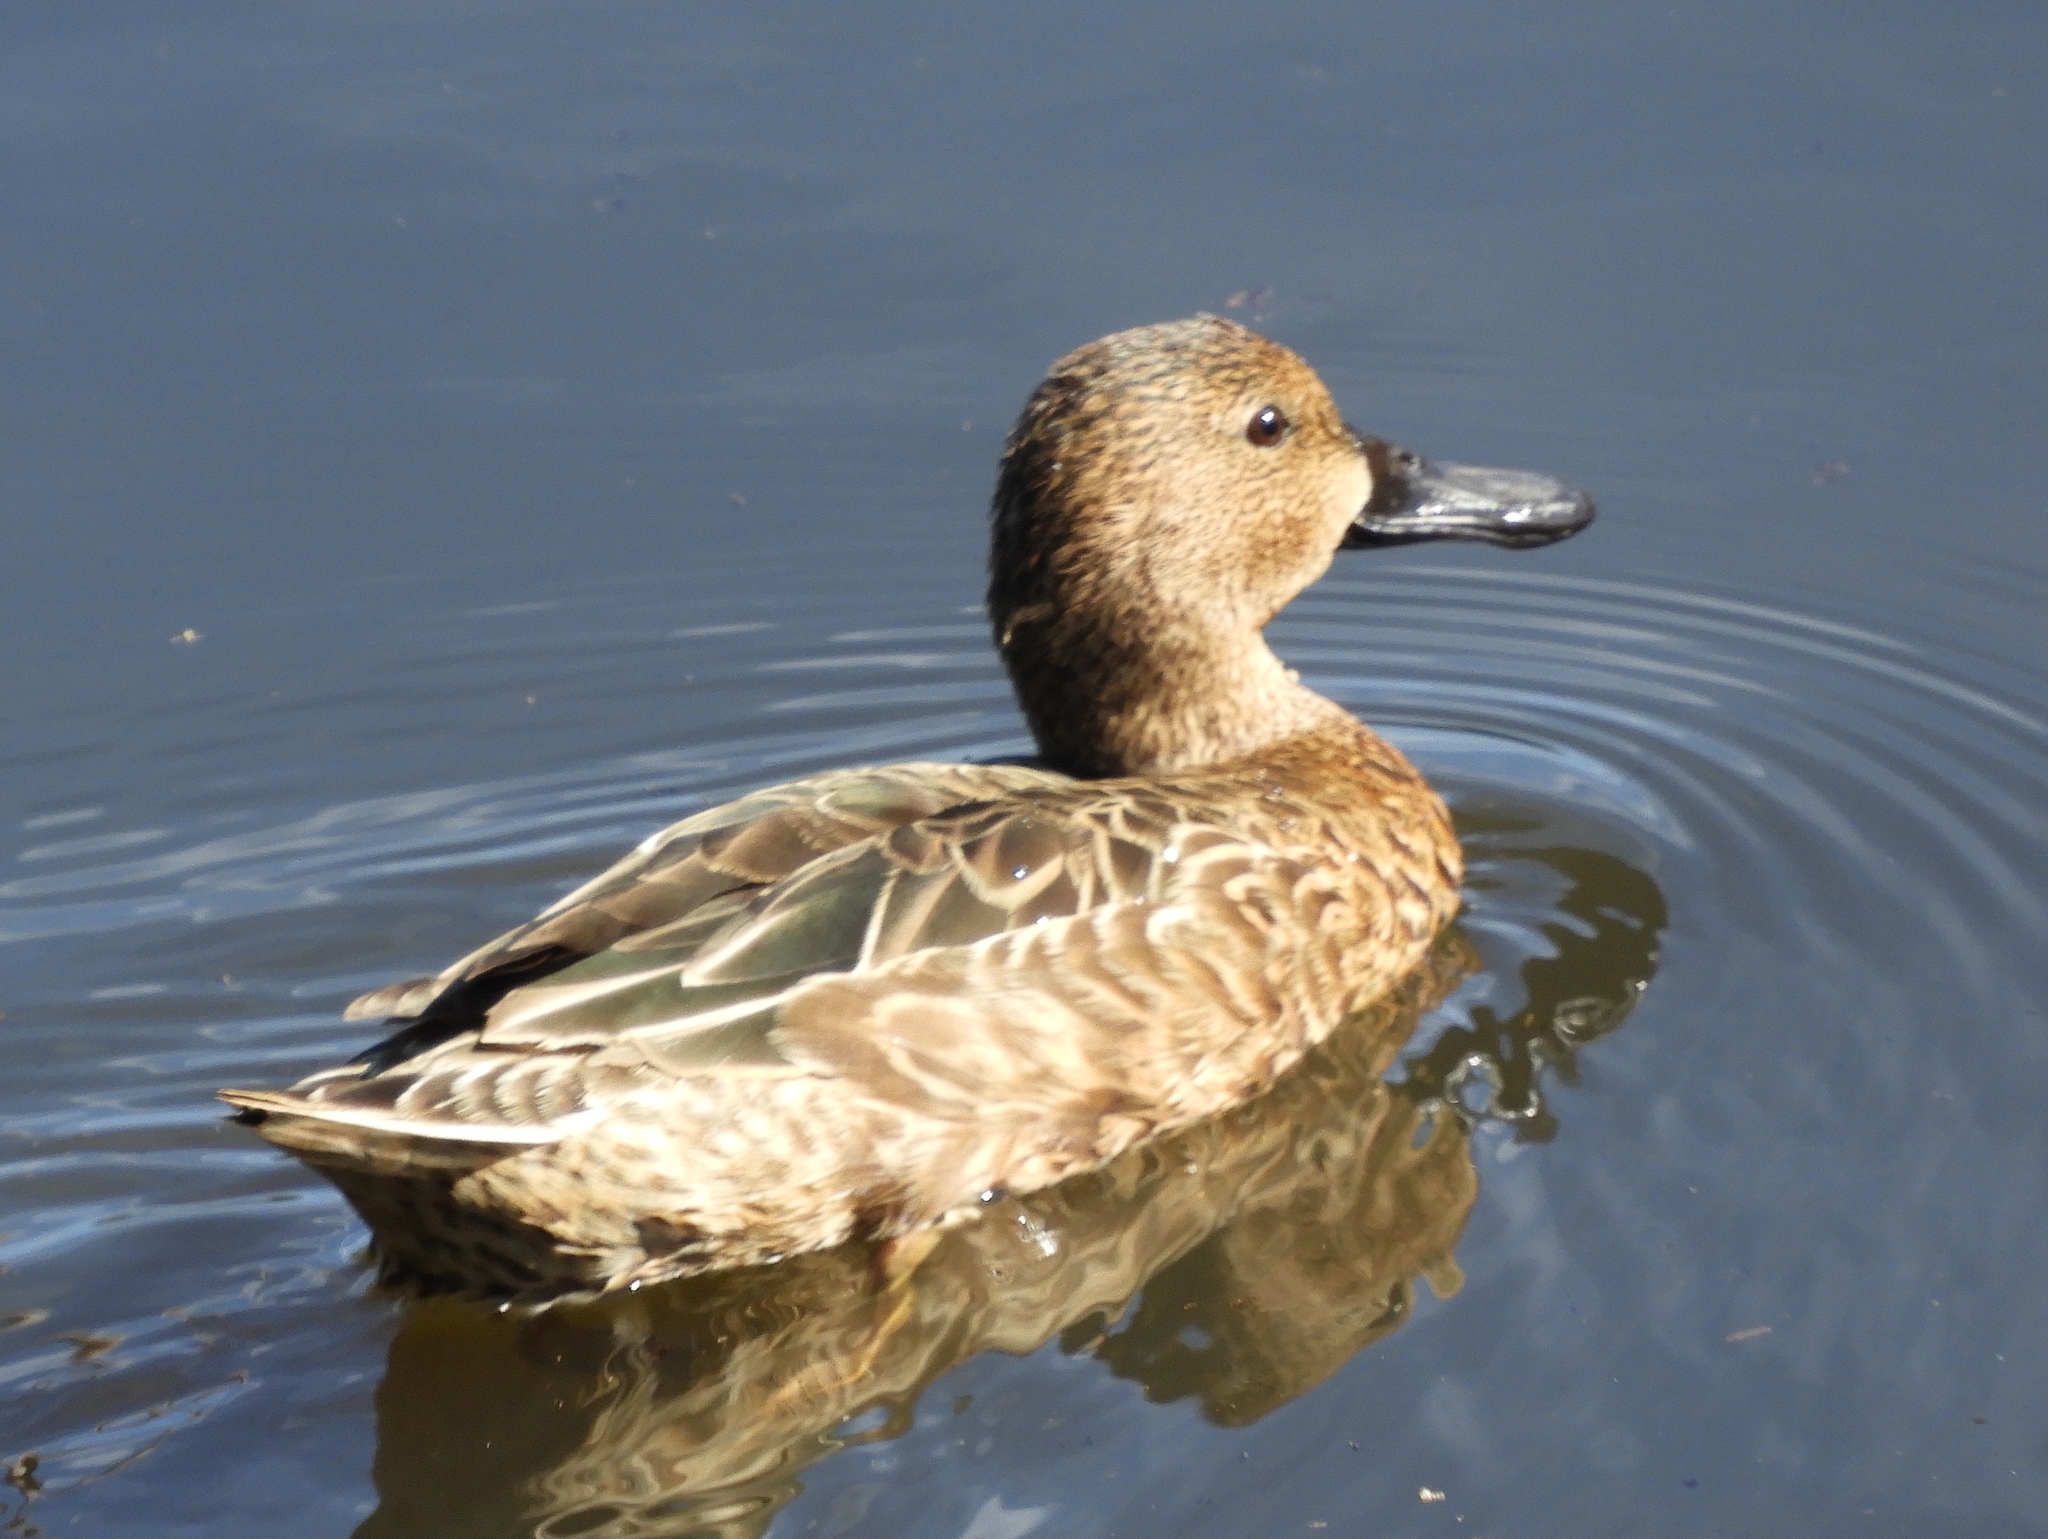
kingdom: Animalia
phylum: Chordata
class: Aves
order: Anseriformes
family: Anatidae
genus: Spatula
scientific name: Spatula cyanoptera
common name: Cinnamon teal
